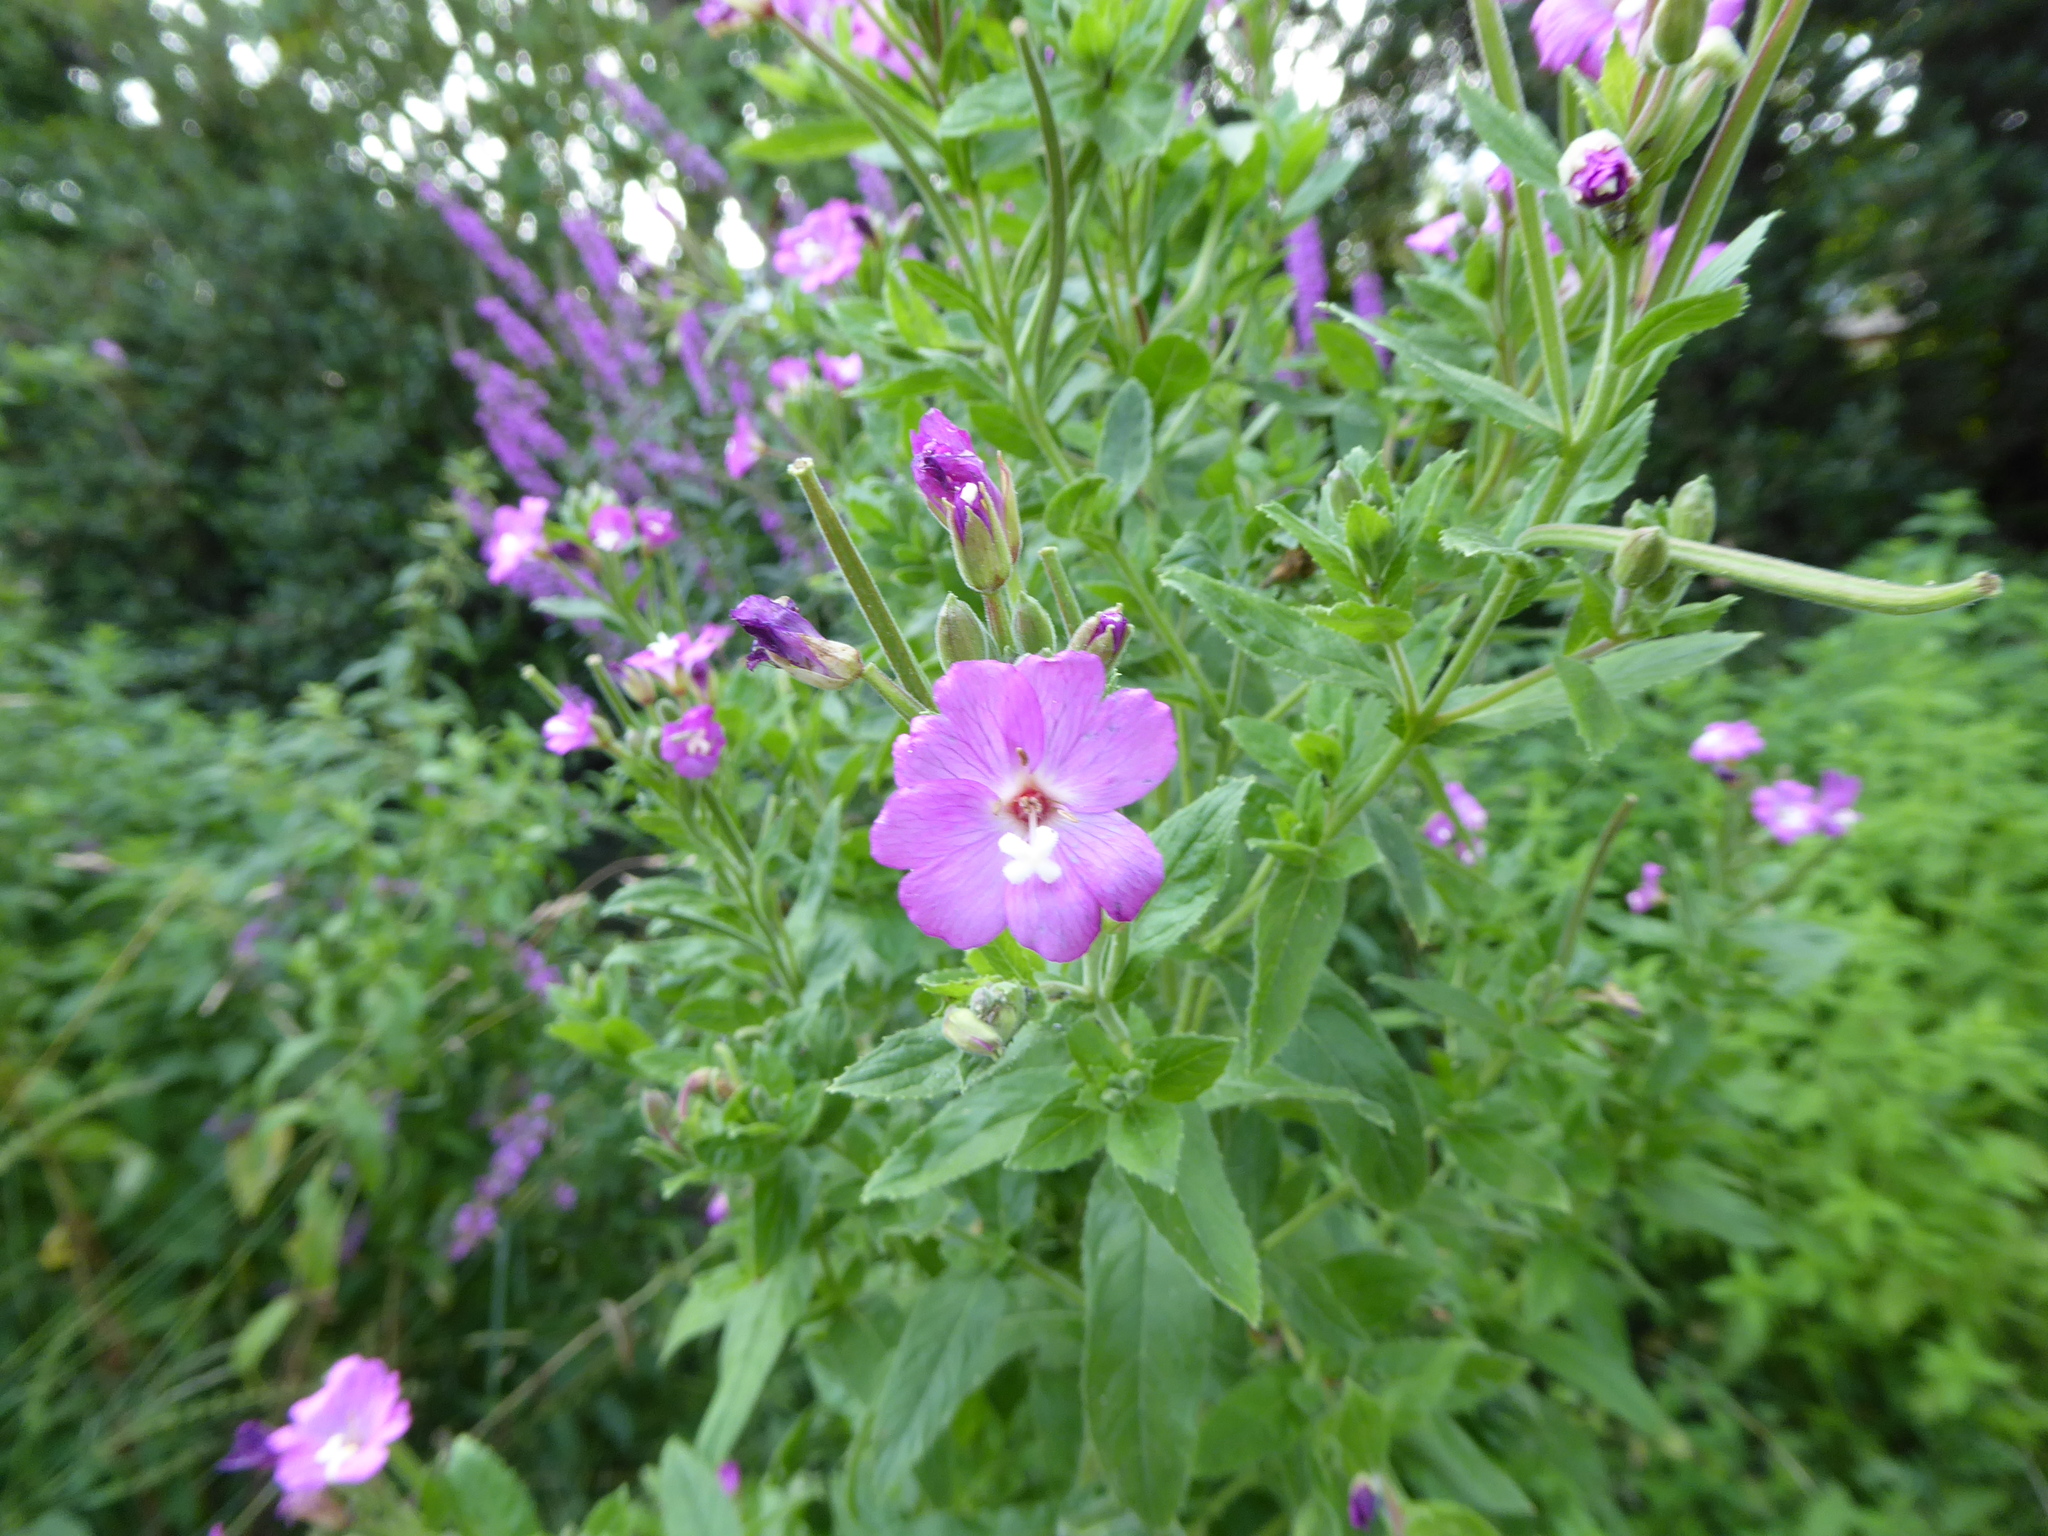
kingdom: Plantae
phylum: Tracheophyta
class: Magnoliopsida
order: Myrtales
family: Onagraceae
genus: Epilobium
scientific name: Epilobium hirsutum
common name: Great willowherb
